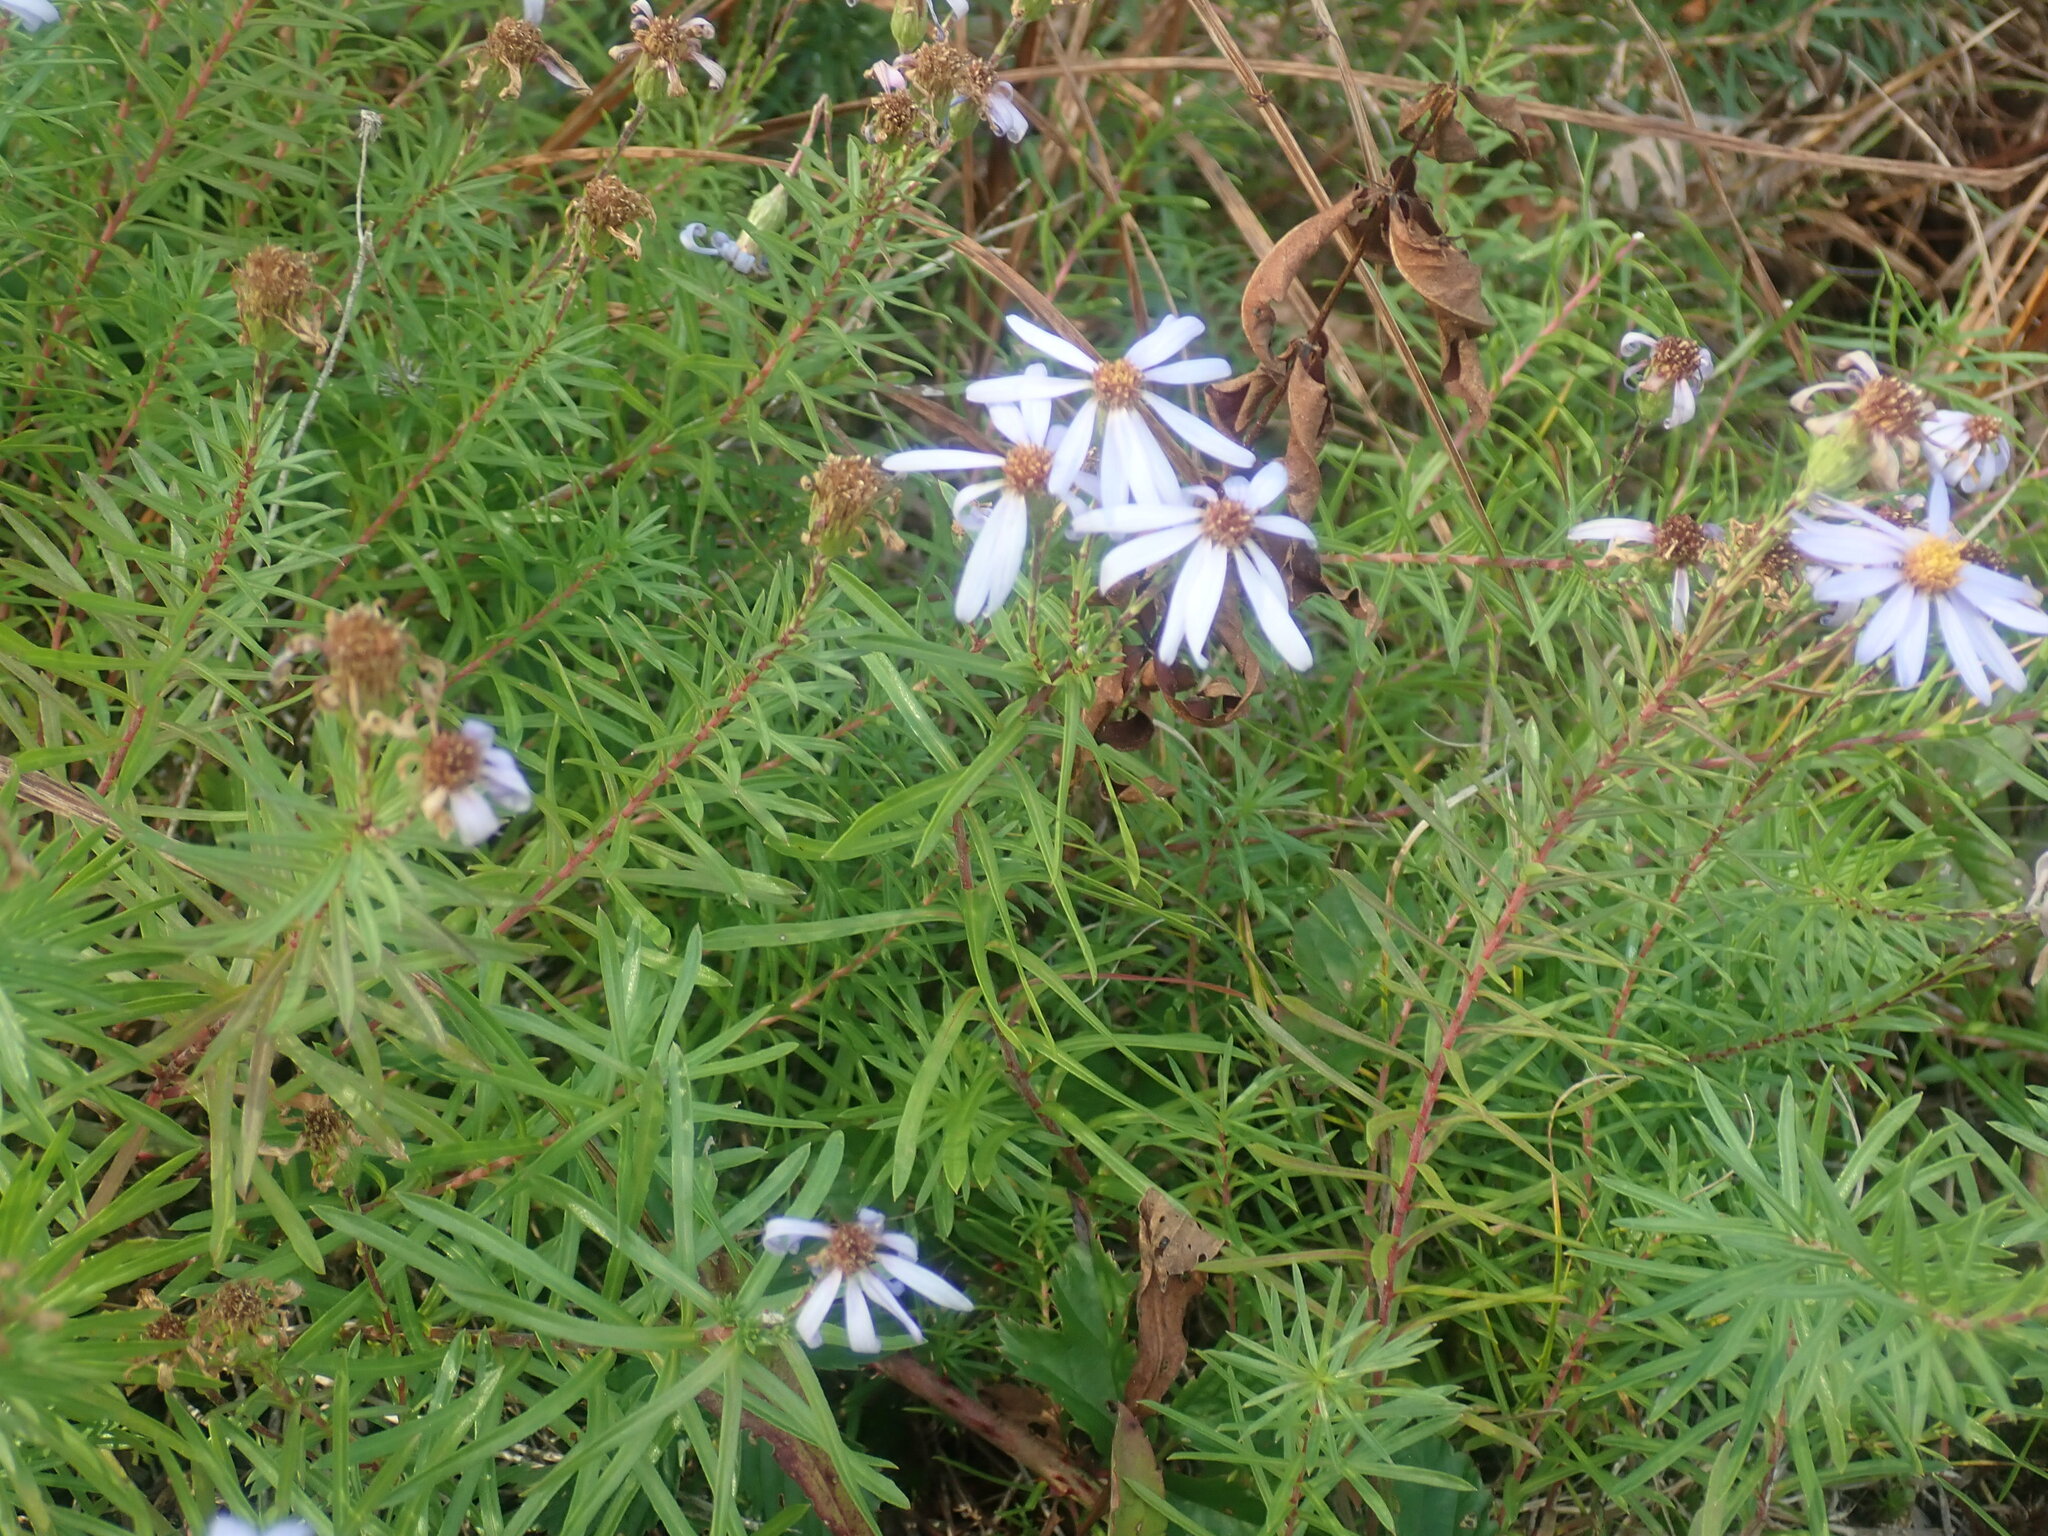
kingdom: Plantae
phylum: Tracheophyta
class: Magnoliopsida
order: Asterales
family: Asteraceae
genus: Ionactis
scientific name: Ionactis linariifolia
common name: Flax-leaf aster
